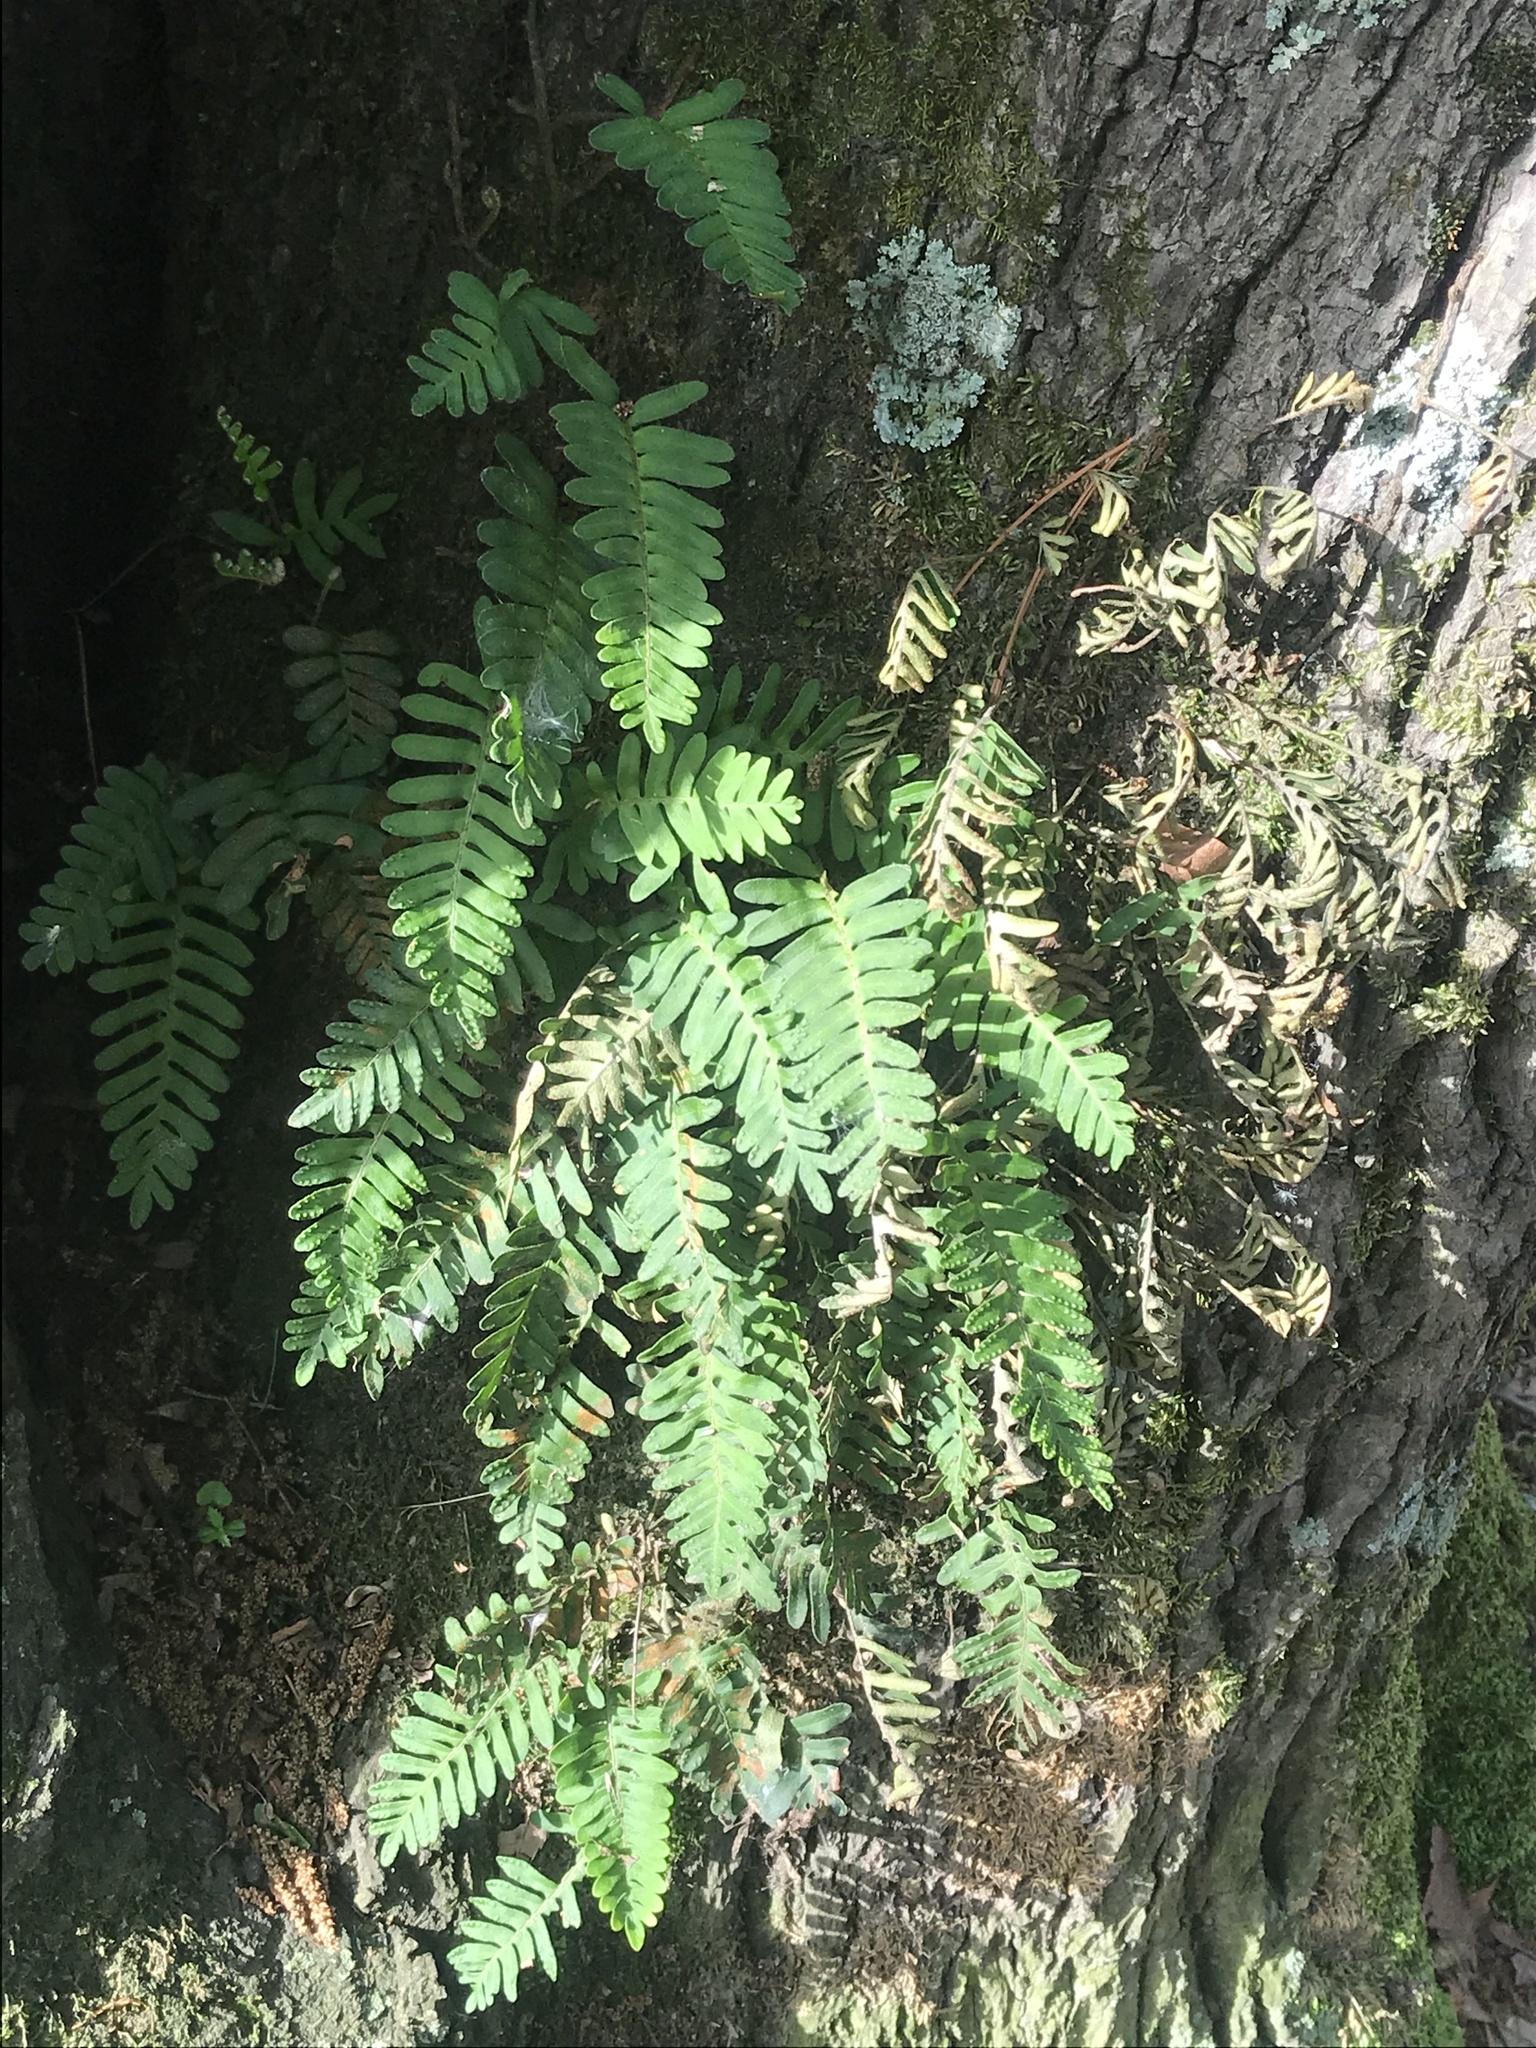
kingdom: Plantae
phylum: Tracheophyta
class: Polypodiopsida
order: Polypodiales
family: Polypodiaceae
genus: Pleopeltis
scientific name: Pleopeltis michauxiana
